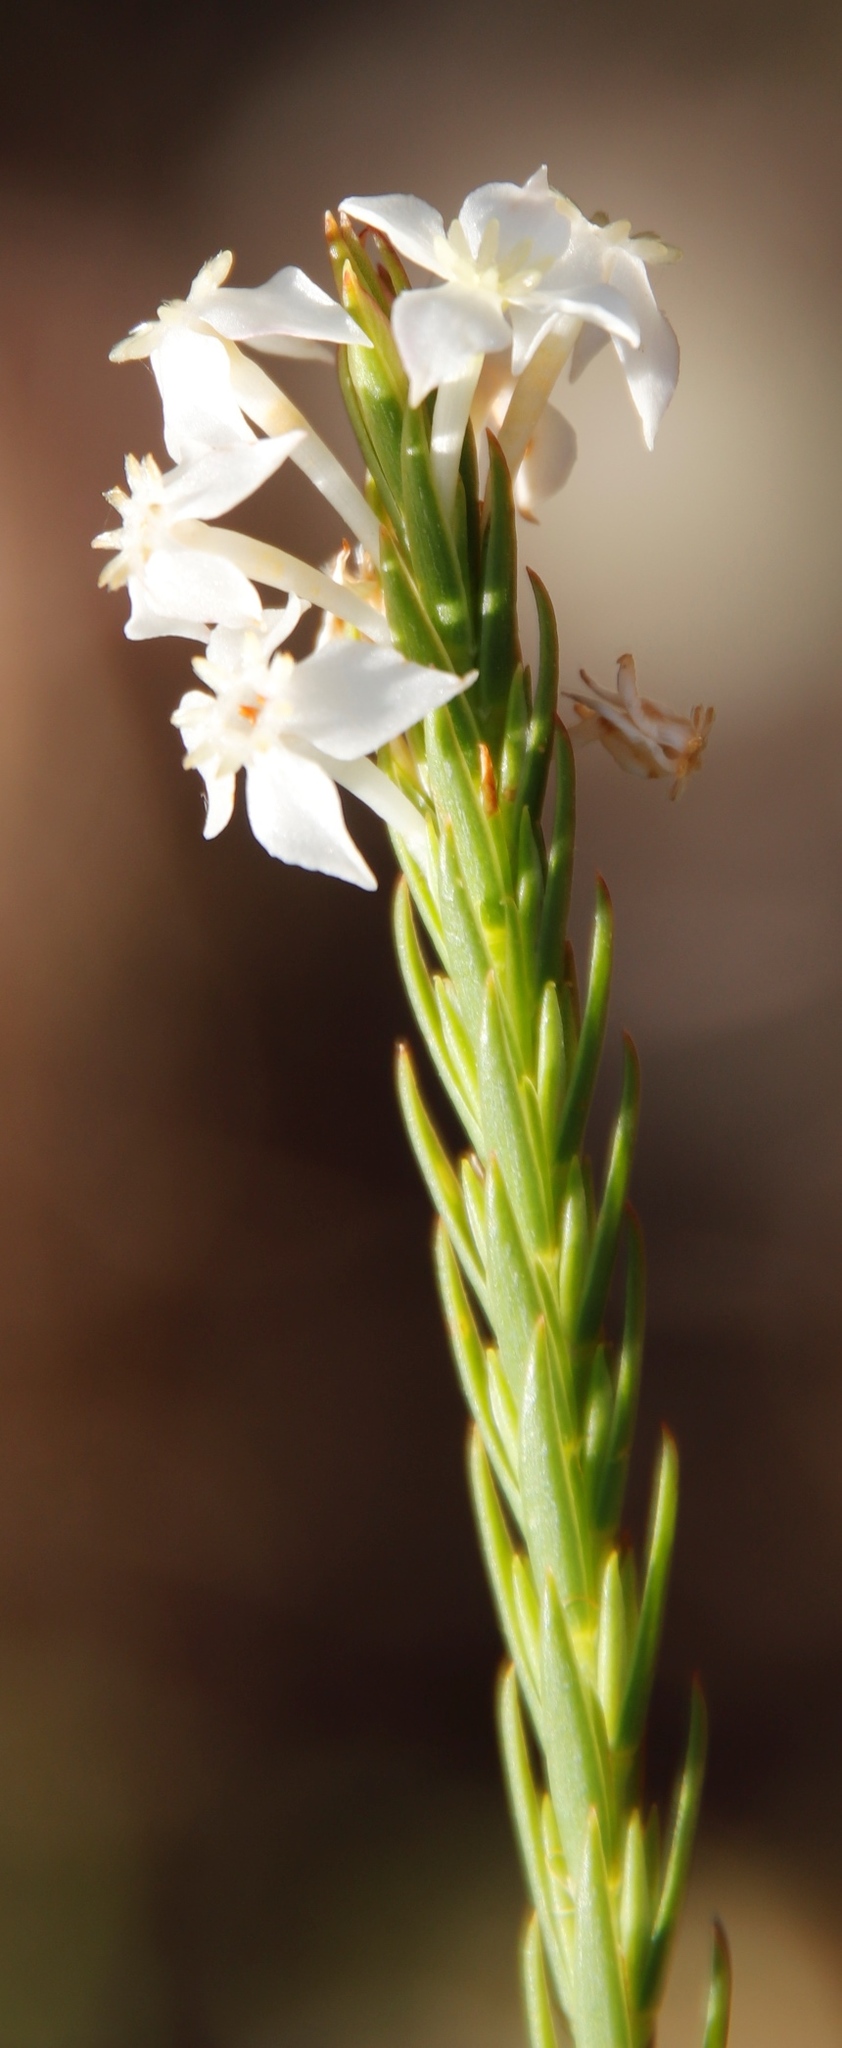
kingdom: Plantae
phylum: Tracheophyta
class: Magnoliopsida
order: Malvales
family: Thymelaeaceae
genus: Struthiola
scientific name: Struthiola ciliata
